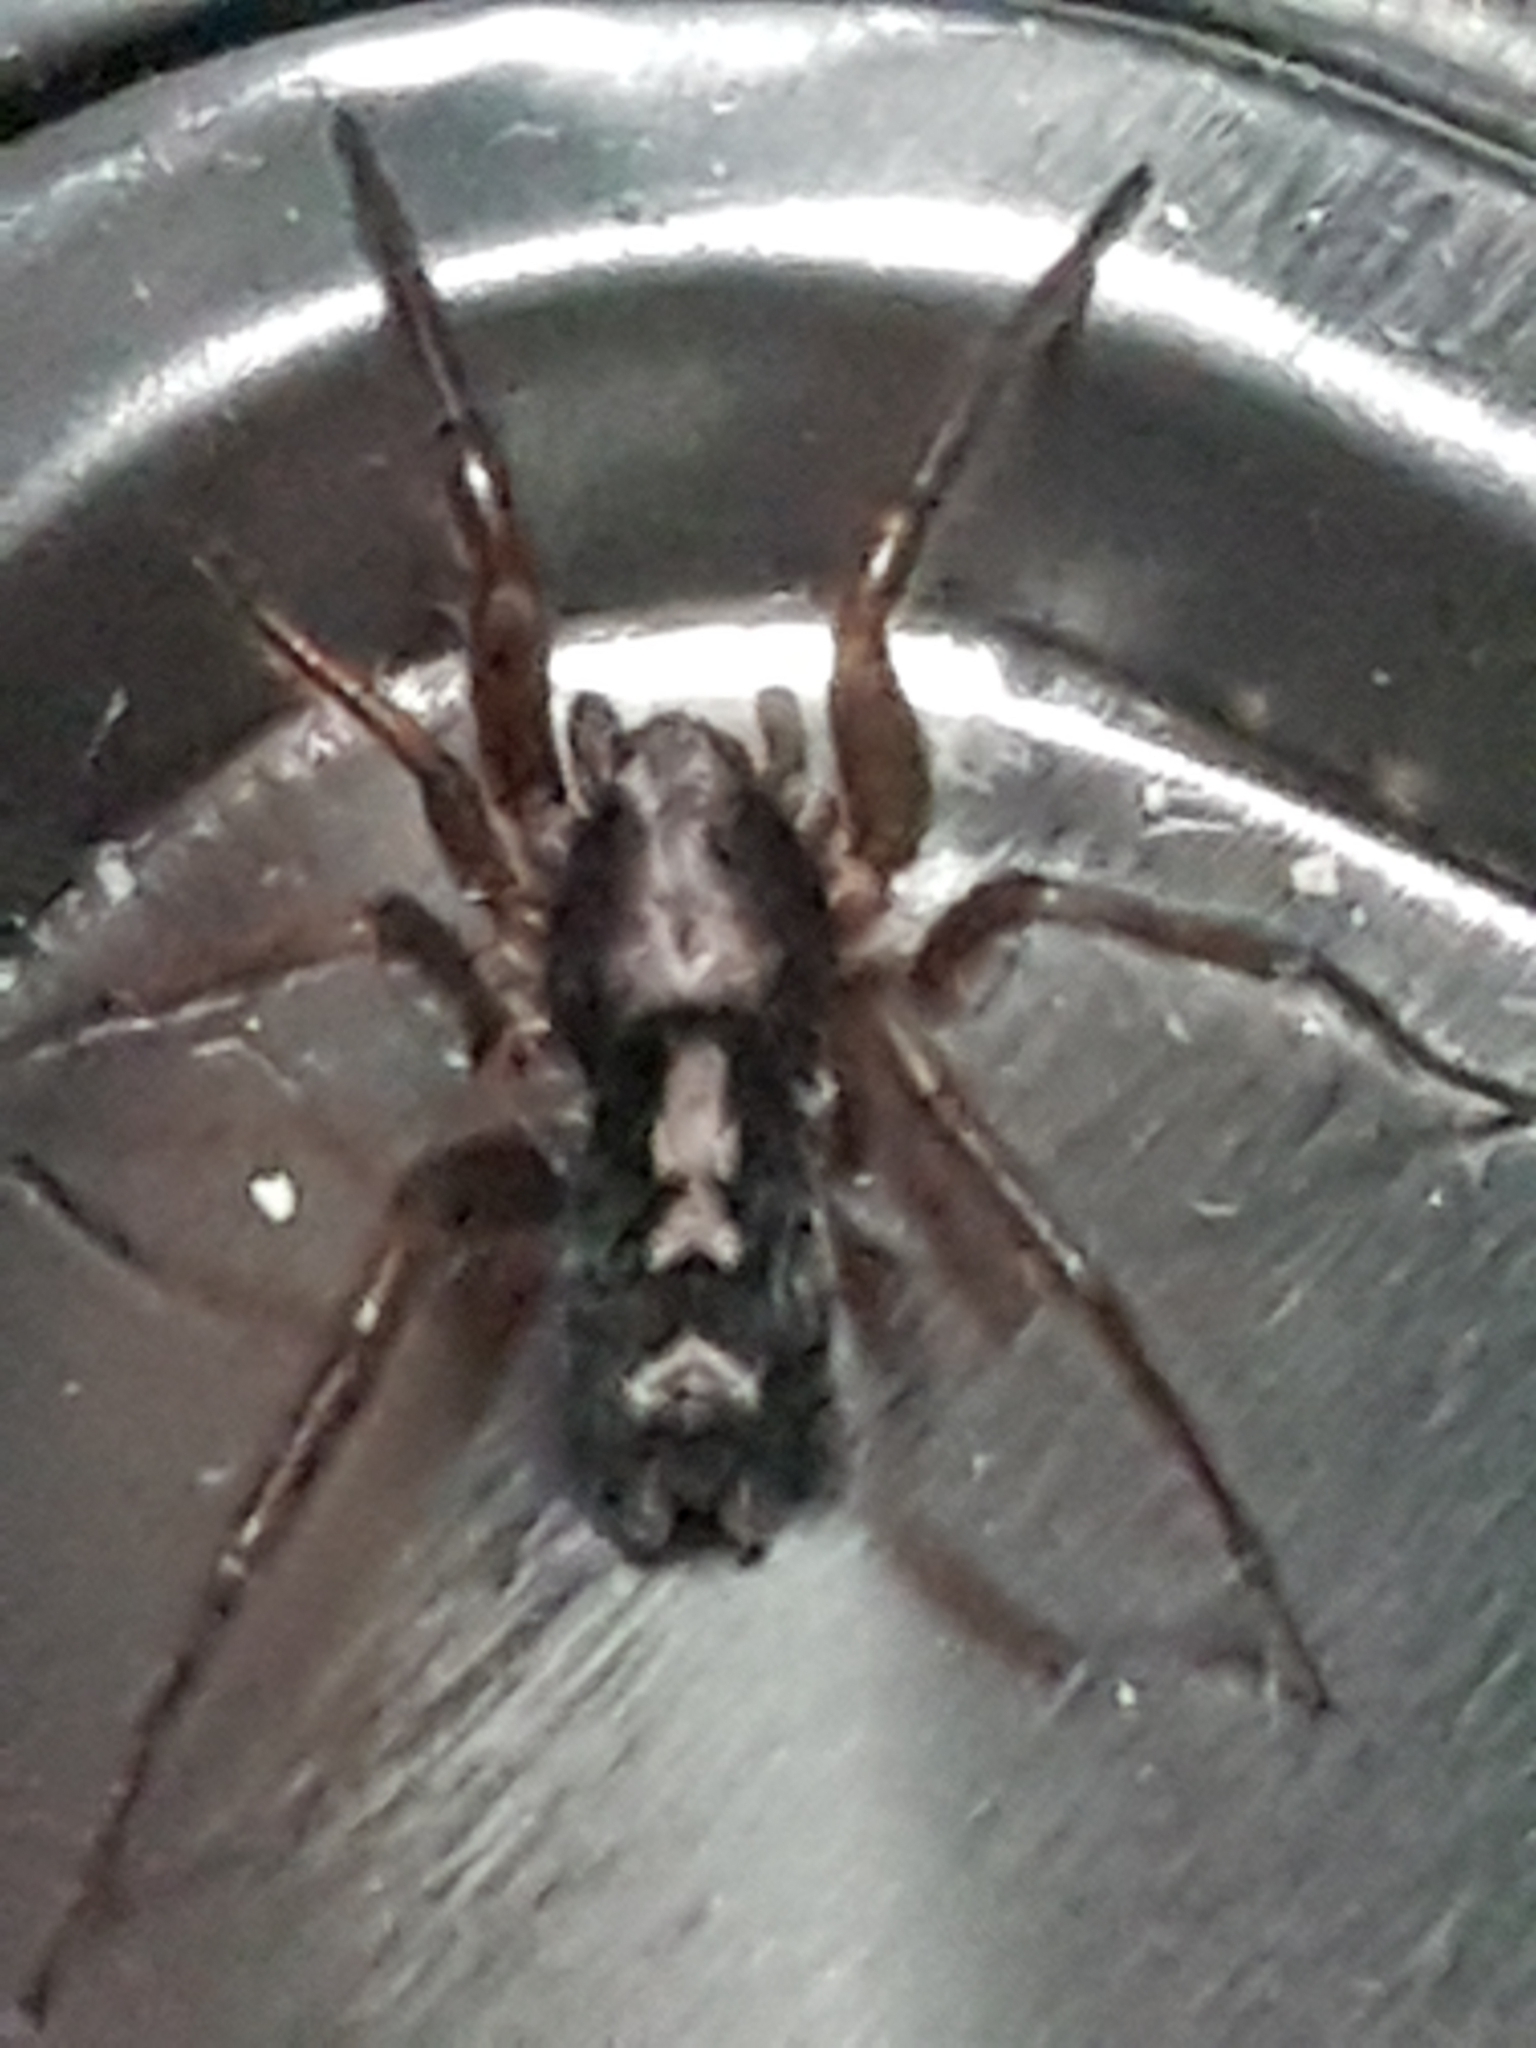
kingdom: Animalia
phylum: Arthropoda
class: Arachnida
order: Araneae
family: Gnaphosidae
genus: Herpyllus
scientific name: Herpyllus ecclesiasticus
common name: Eastern parson spider
